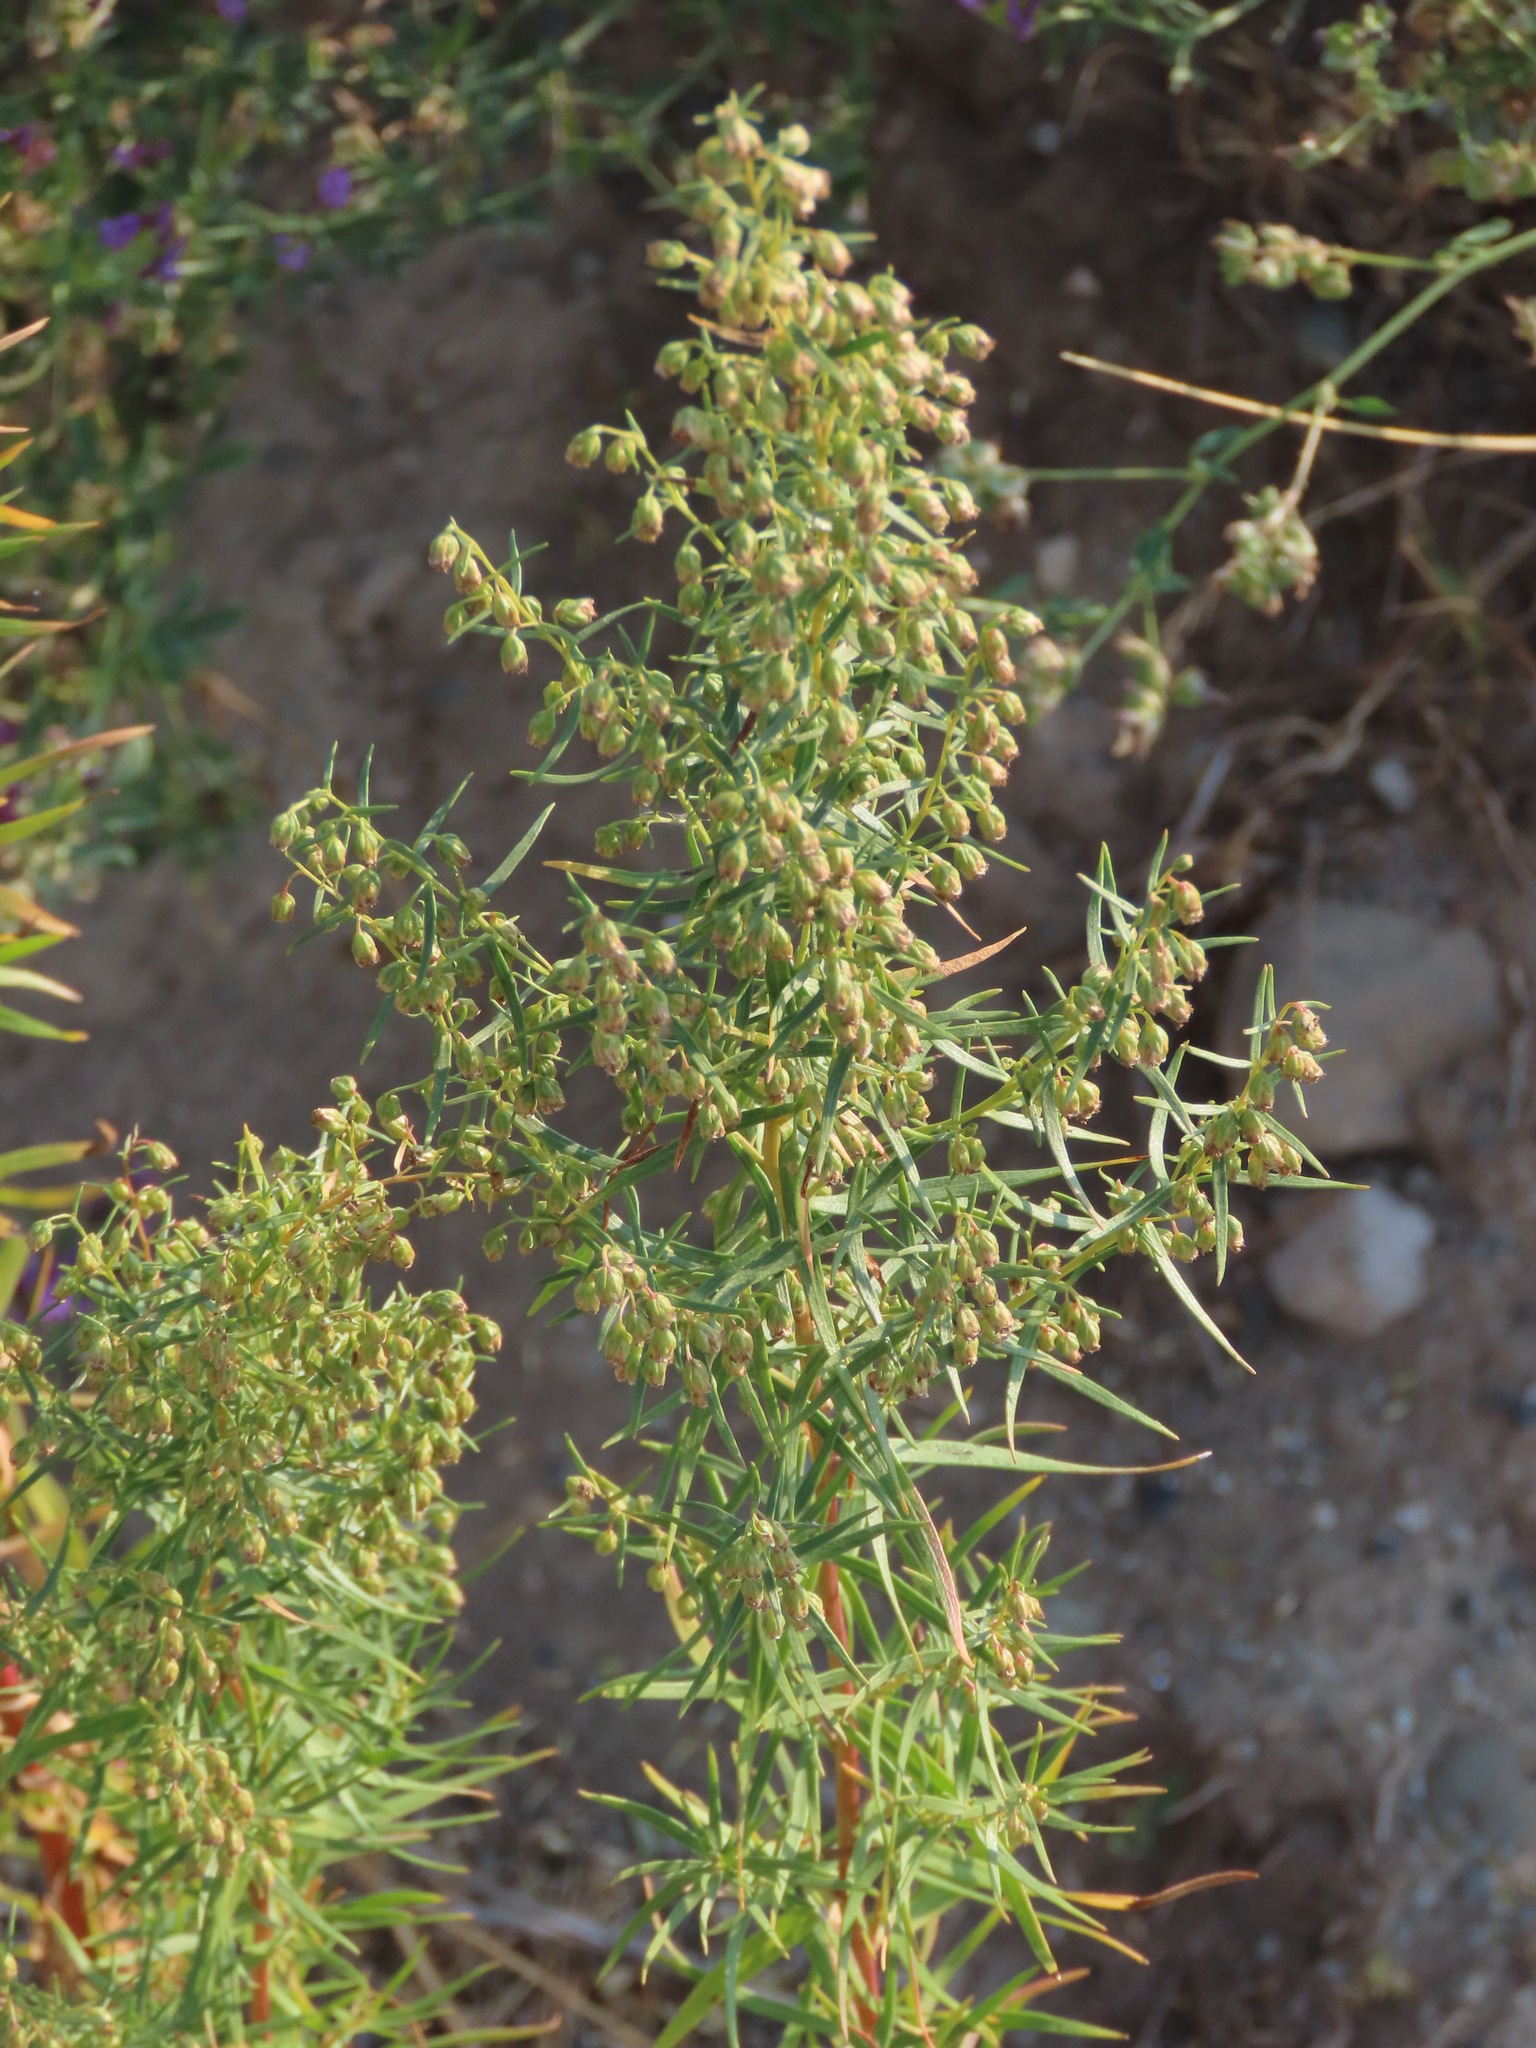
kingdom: Plantae
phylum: Tracheophyta
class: Magnoliopsida
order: Asterales
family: Asteraceae
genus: Artemisia
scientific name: Artemisia biennis
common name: Biennial wormwood
